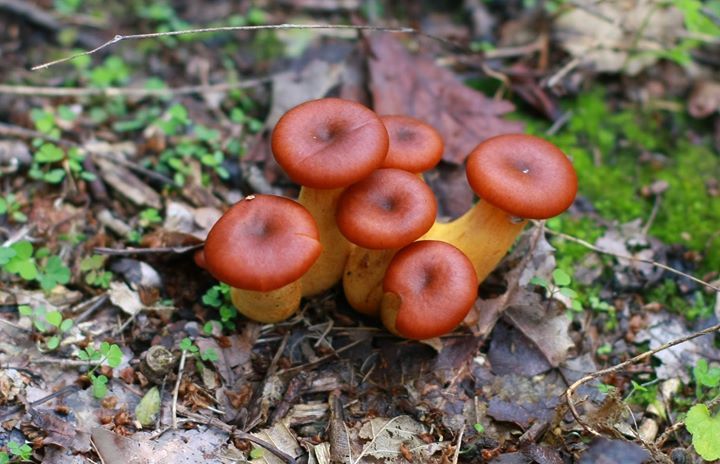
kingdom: Fungi
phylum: Basidiomycota
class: Agaricomycetes
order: Agaricales
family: Omphalotaceae
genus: Omphalotus
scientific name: Omphalotus olearius
